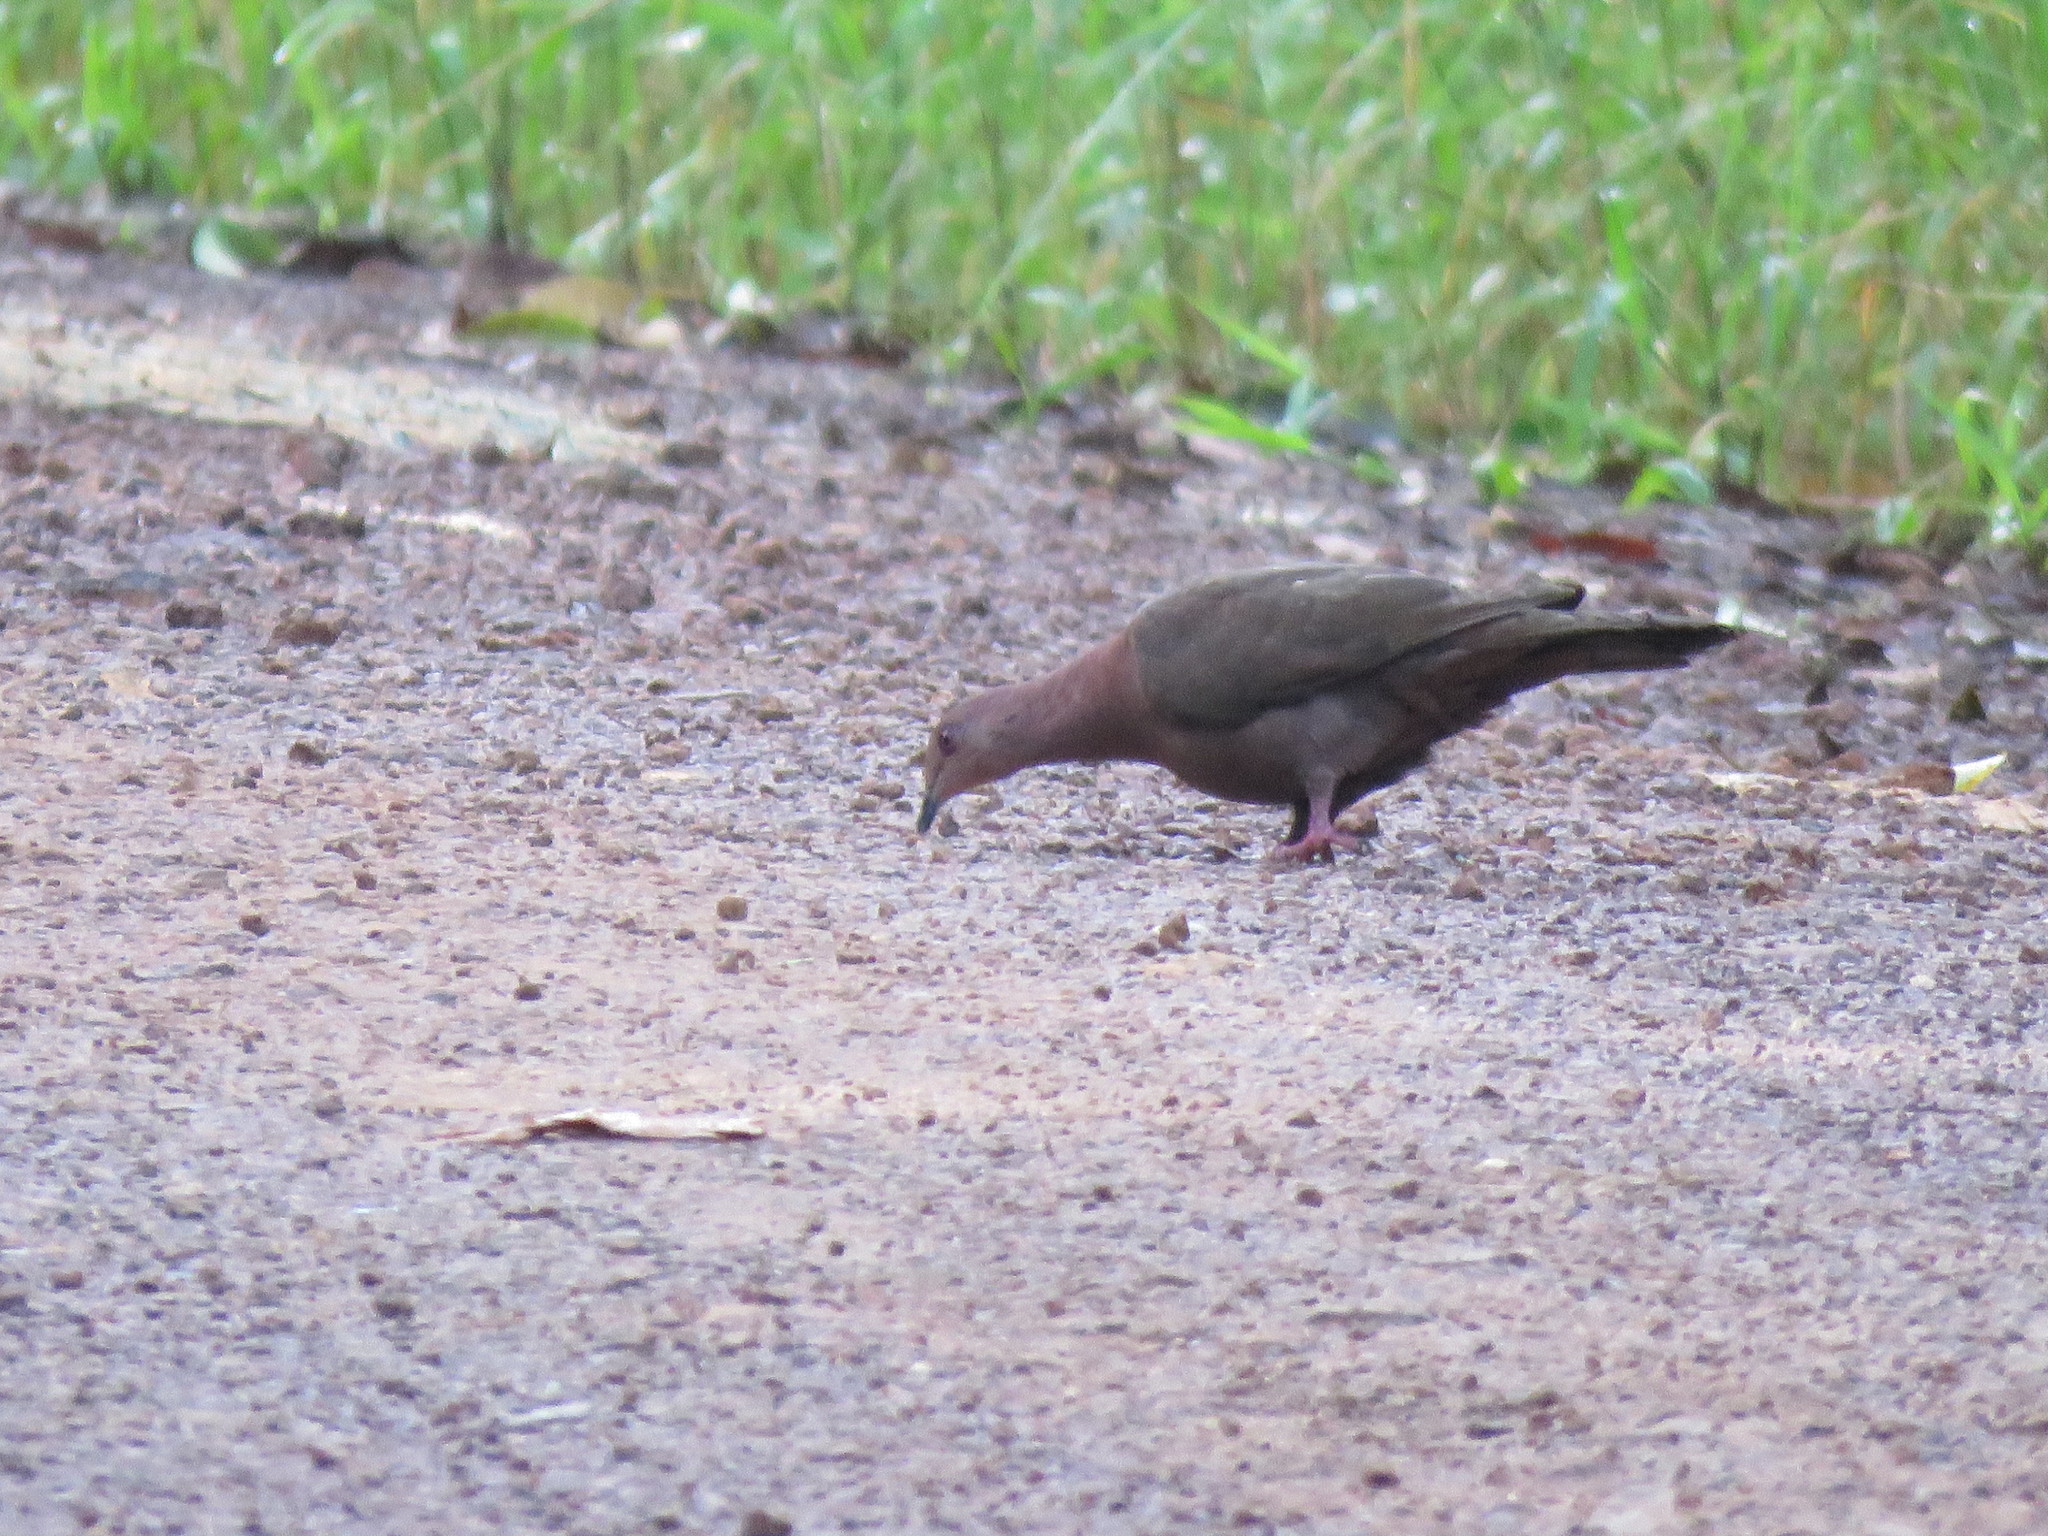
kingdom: Animalia
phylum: Chordata
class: Aves
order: Columbiformes
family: Columbidae
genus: Patagioenas
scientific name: Patagioenas plumbea
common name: Plumbeous pigeon
